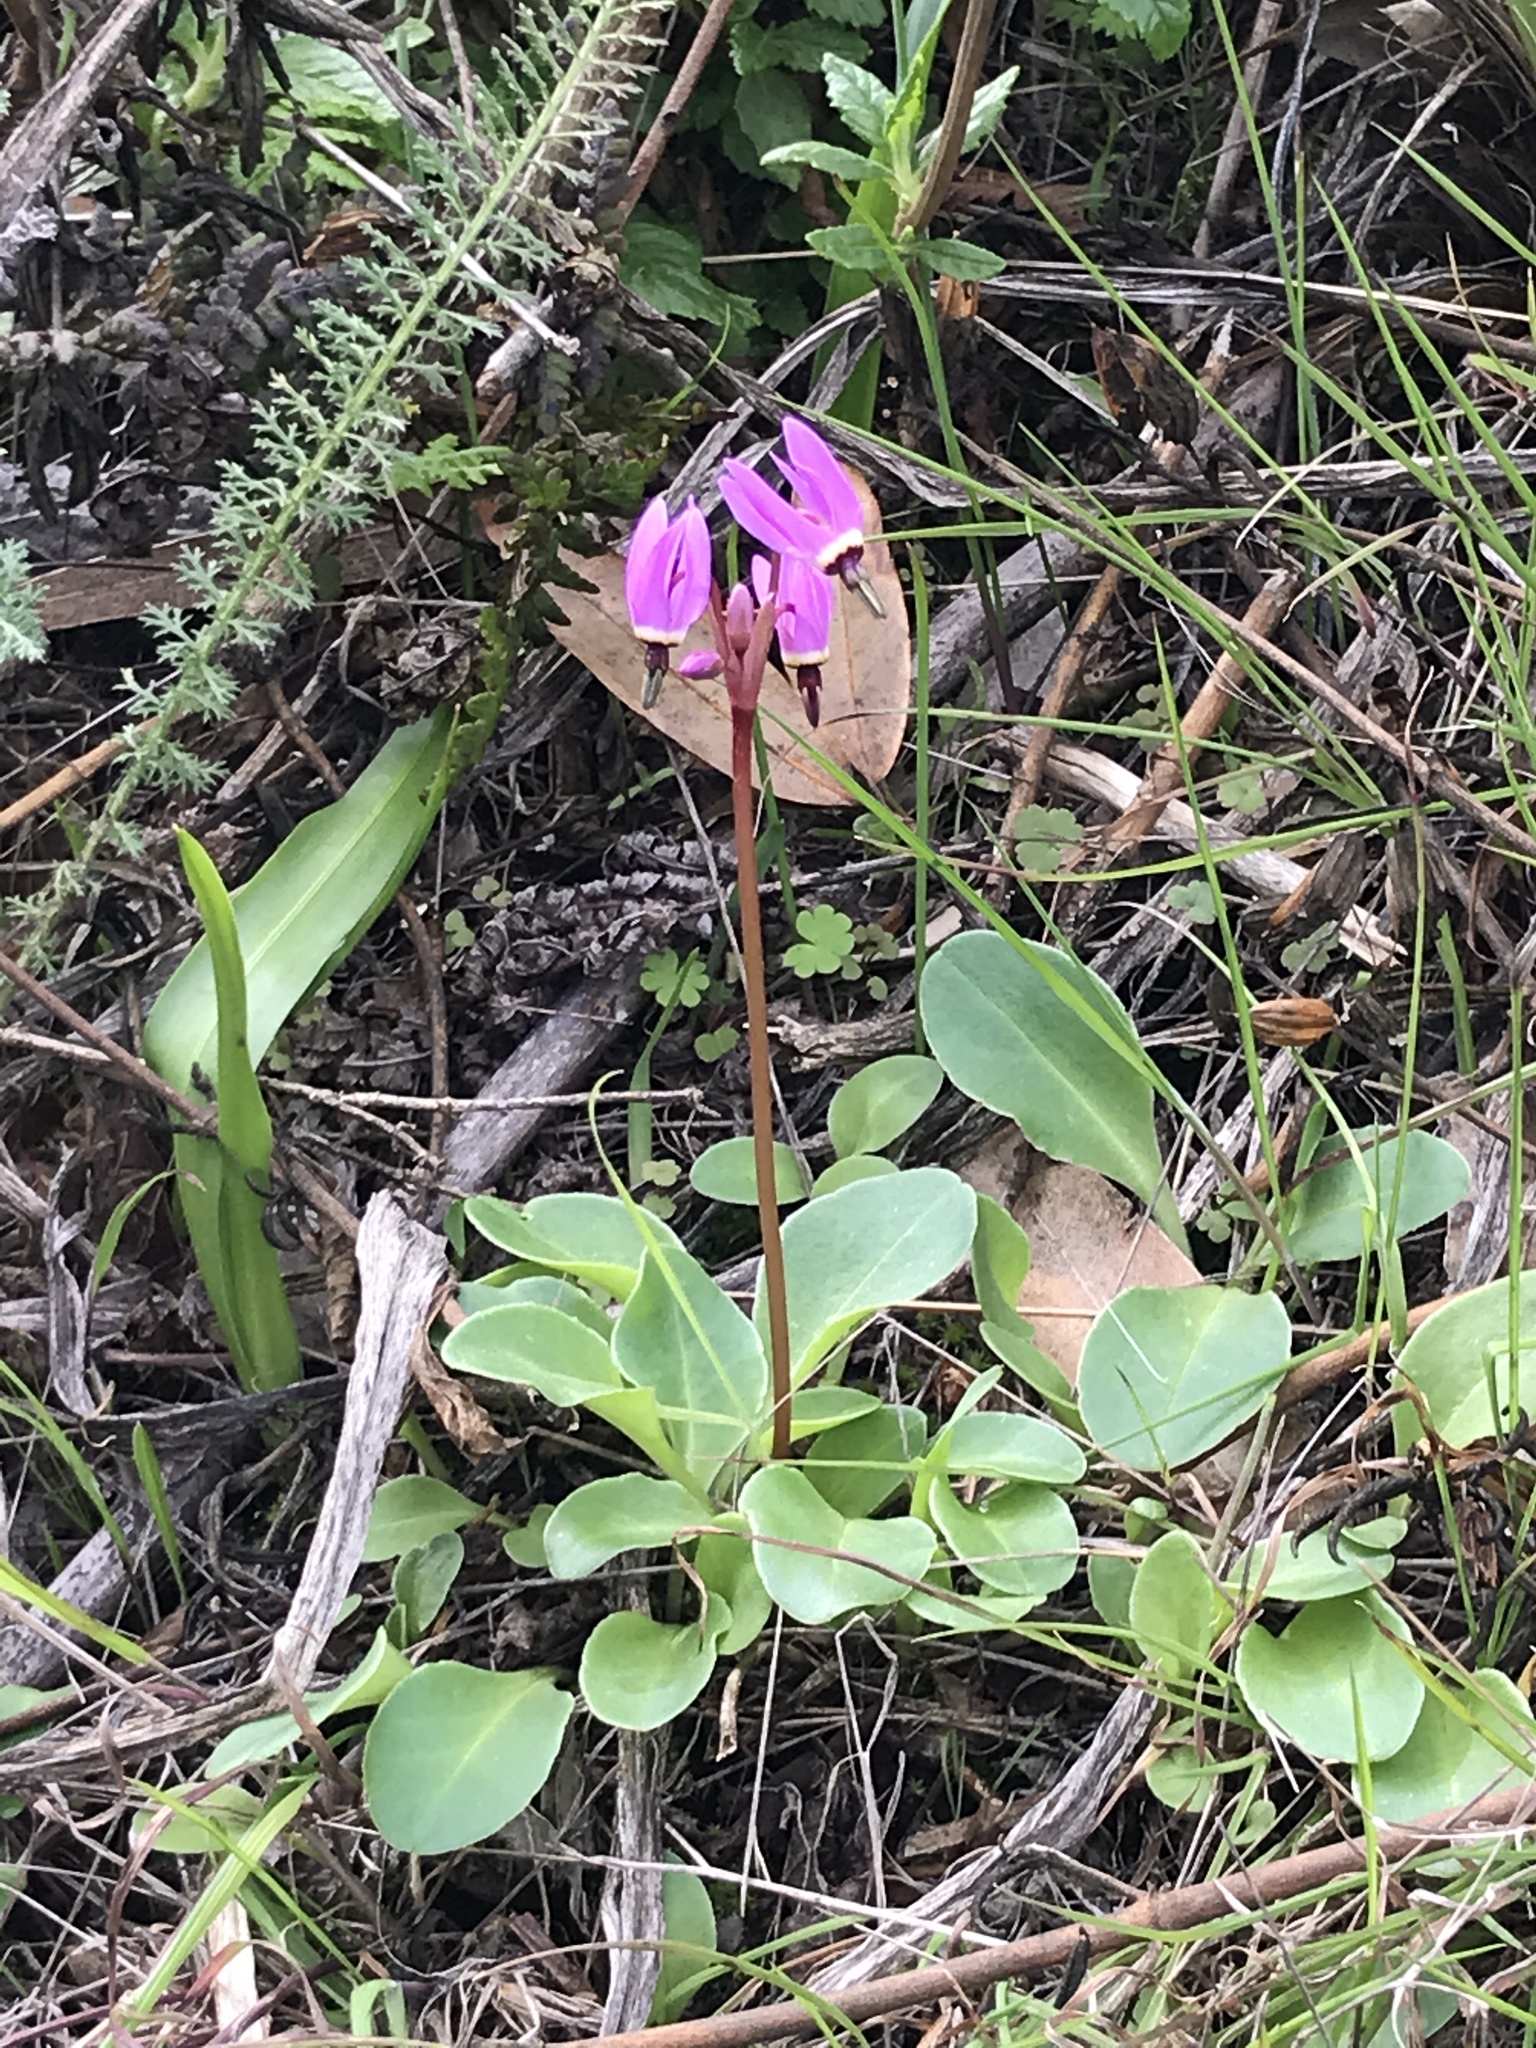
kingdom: Plantae
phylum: Tracheophyta
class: Magnoliopsida
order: Ericales
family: Primulaceae
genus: Dodecatheon
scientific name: Dodecatheon hendersonii
